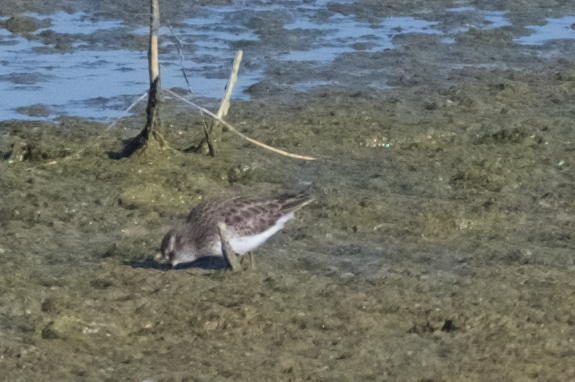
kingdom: Animalia
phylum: Chordata
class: Aves
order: Charadriiformes
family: Scolopacidae
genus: Calidris
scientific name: Calidris minutilla
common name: Least sandpiper
